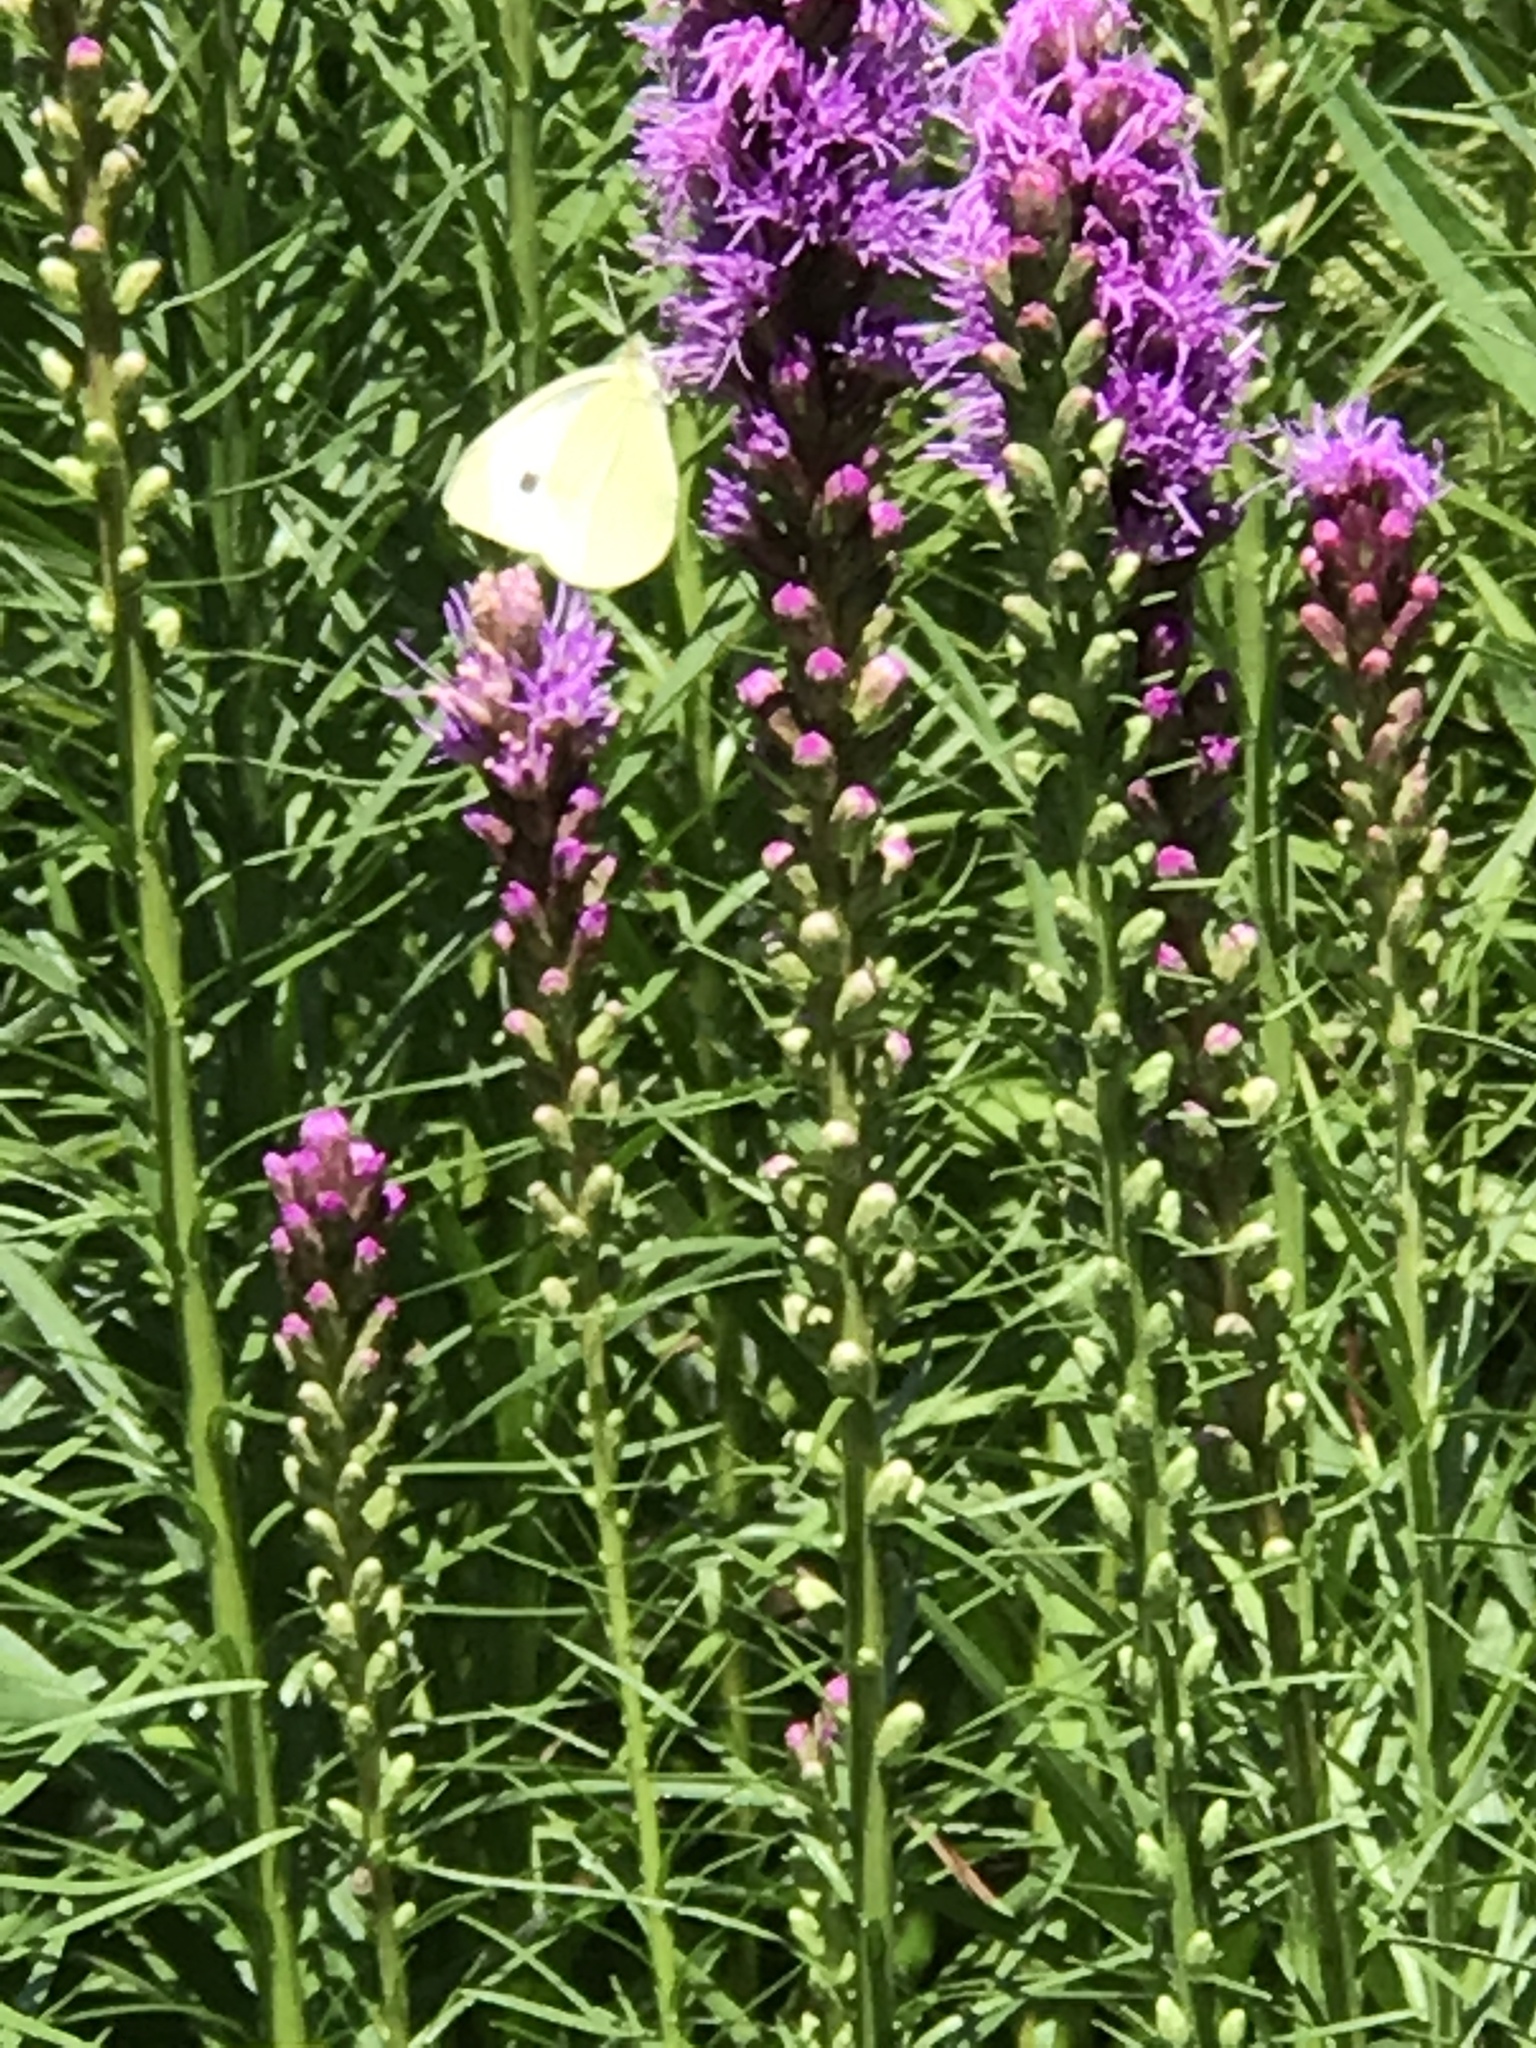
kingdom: Animalia
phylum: Arthropoda
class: Insecta
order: Lepidoptera
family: Pieridae
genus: Pieris
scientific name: Pieris rapae
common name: Small white
